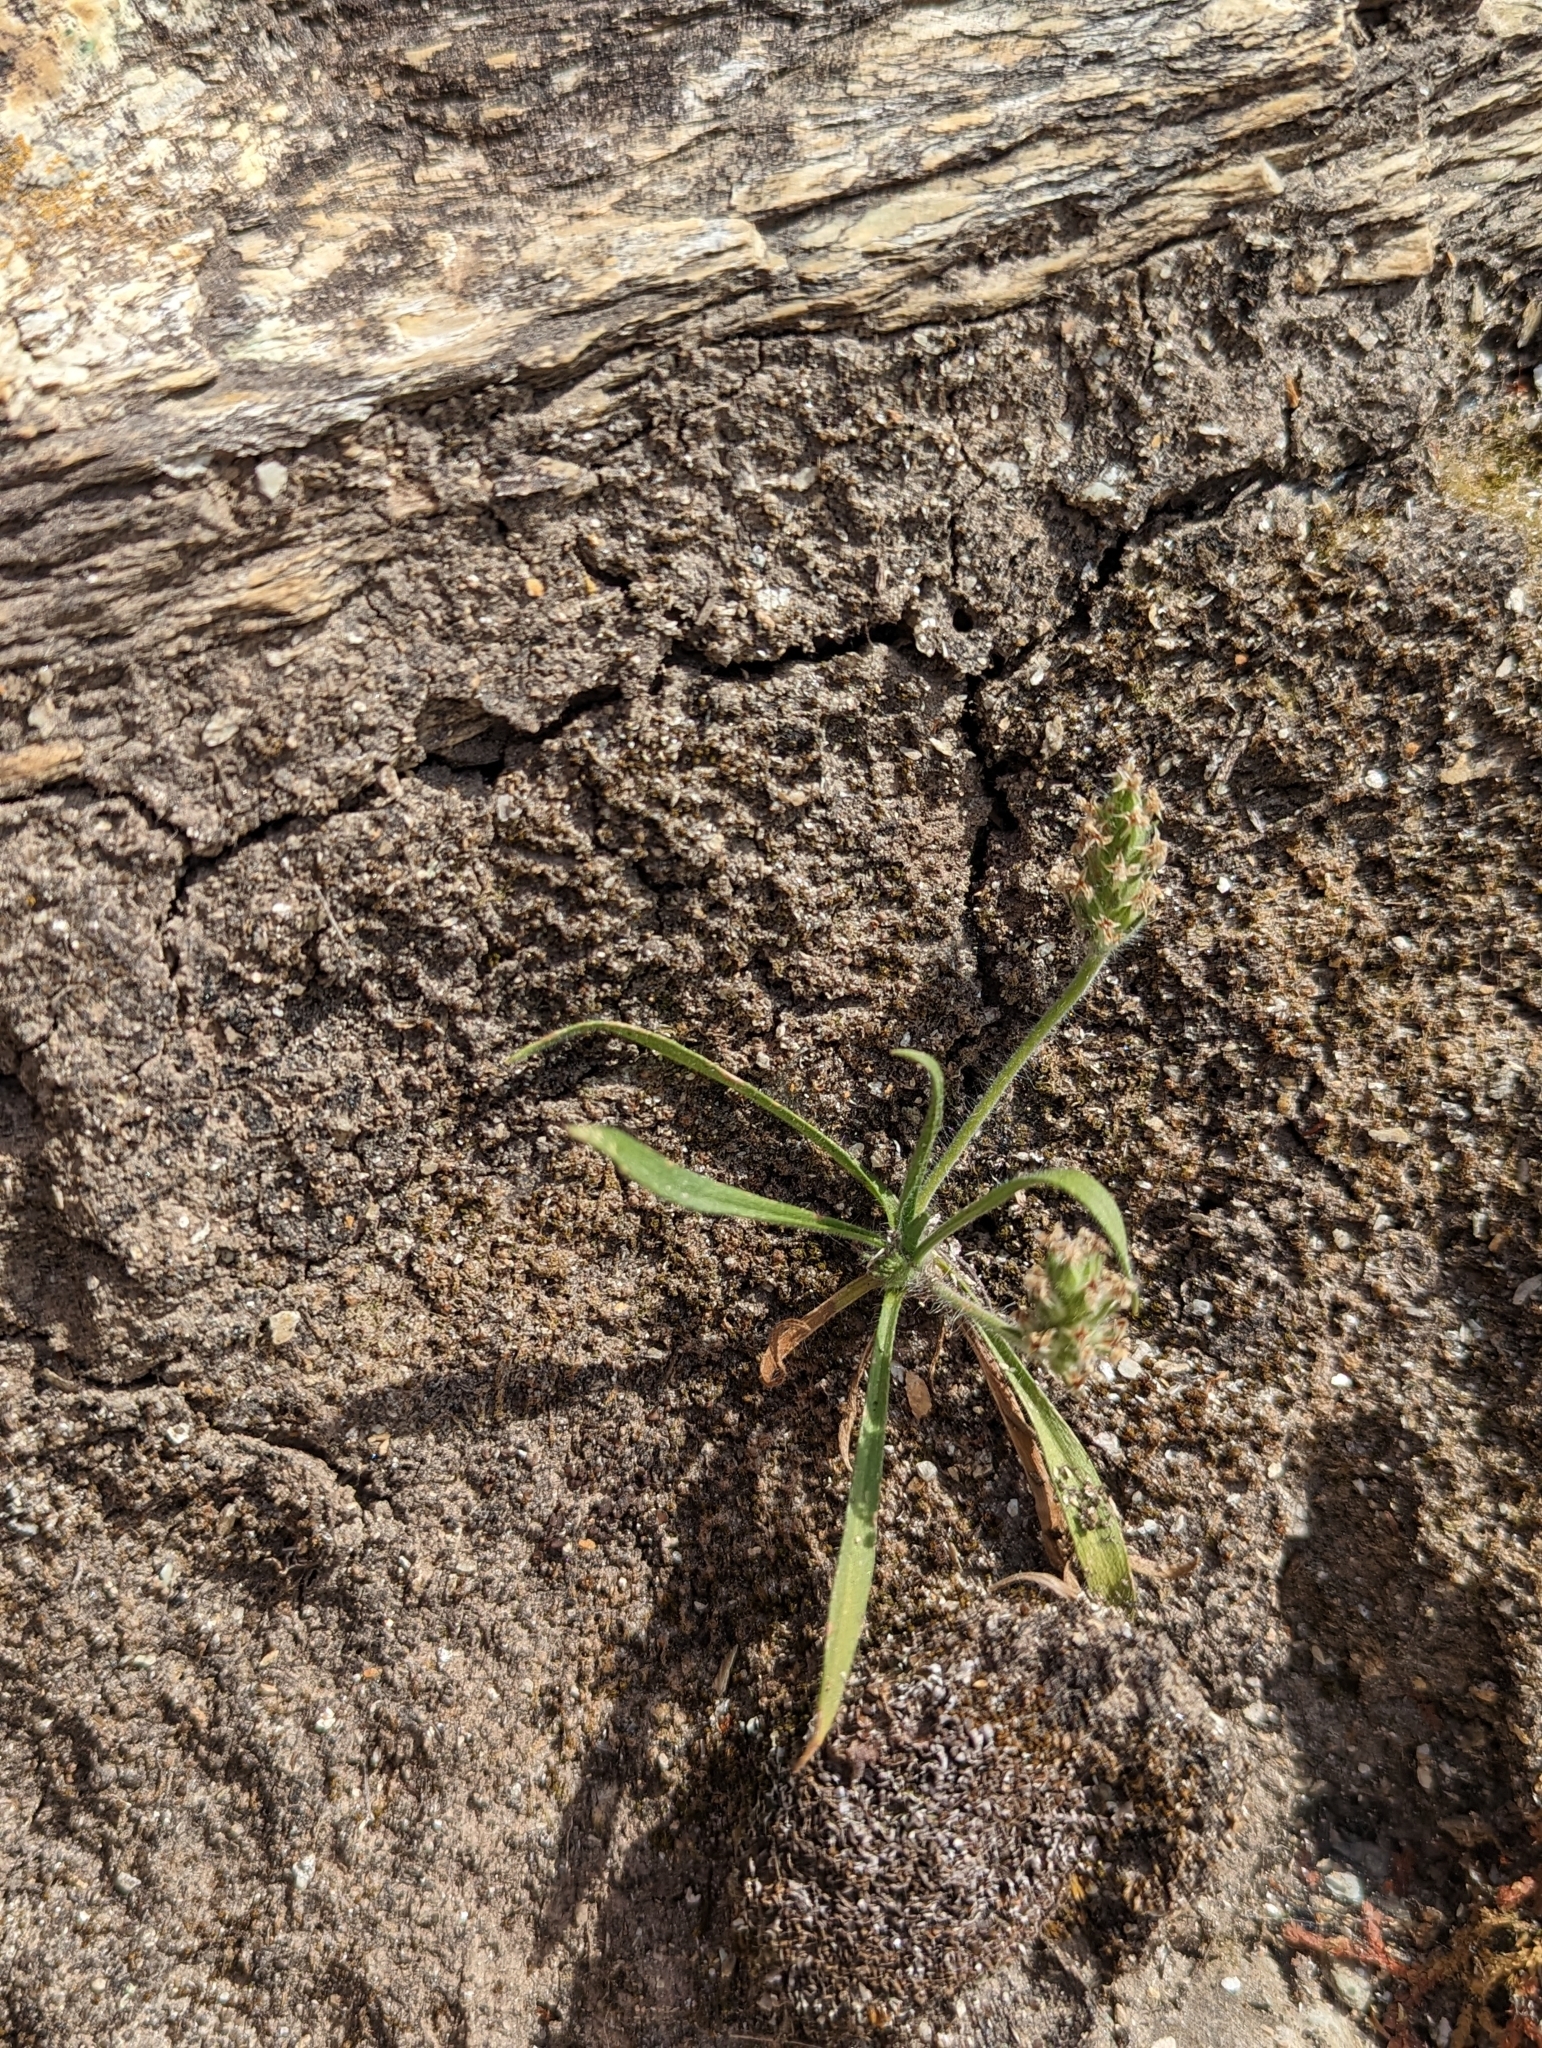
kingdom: Plantae
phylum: Tracheophyta
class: Magnoliopsida
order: Lamiales
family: Plantaginaceae
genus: Plantago
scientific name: Plantago bellardii
